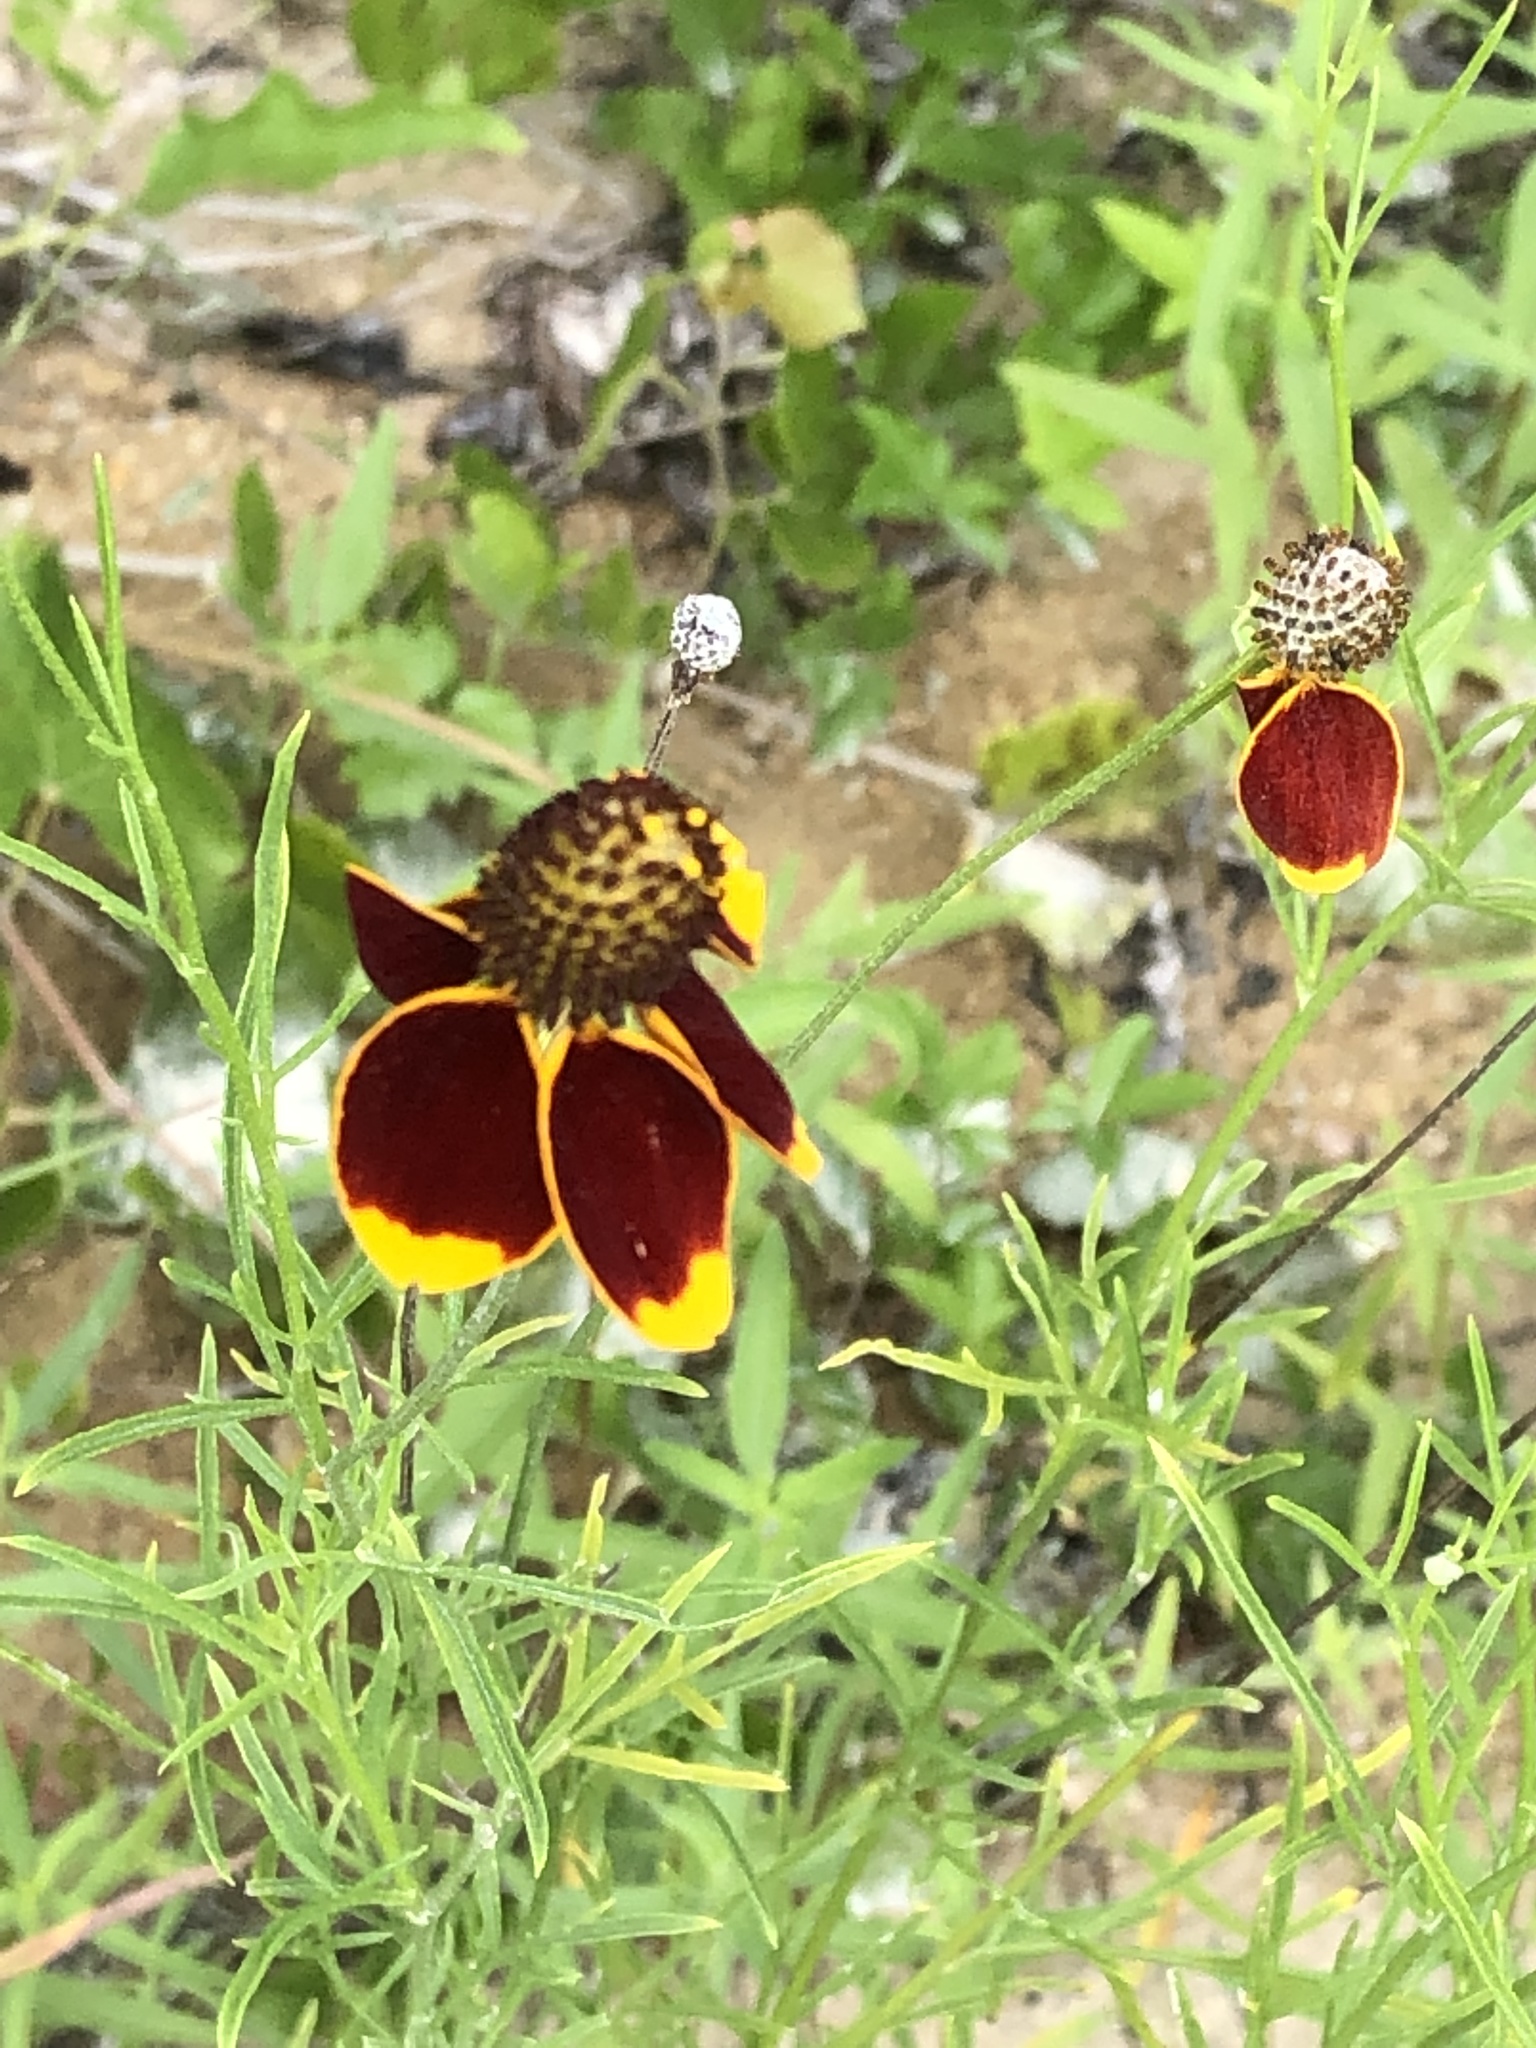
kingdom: Plantae
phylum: Tracheophyta
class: Magnoliopsida
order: Asterales
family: Asteraceae
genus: Ratibida
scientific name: Ratibida columnifera
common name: Prairie coneflower
